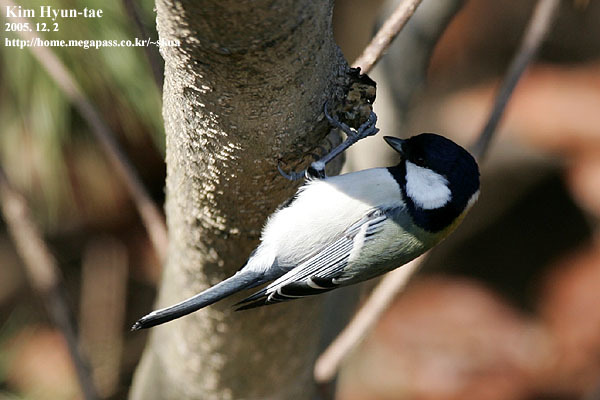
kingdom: Animalia
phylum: Chordata
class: Aves
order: Passeriformes
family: Paridae
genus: Parus
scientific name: Parus minor
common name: Japanese tit
